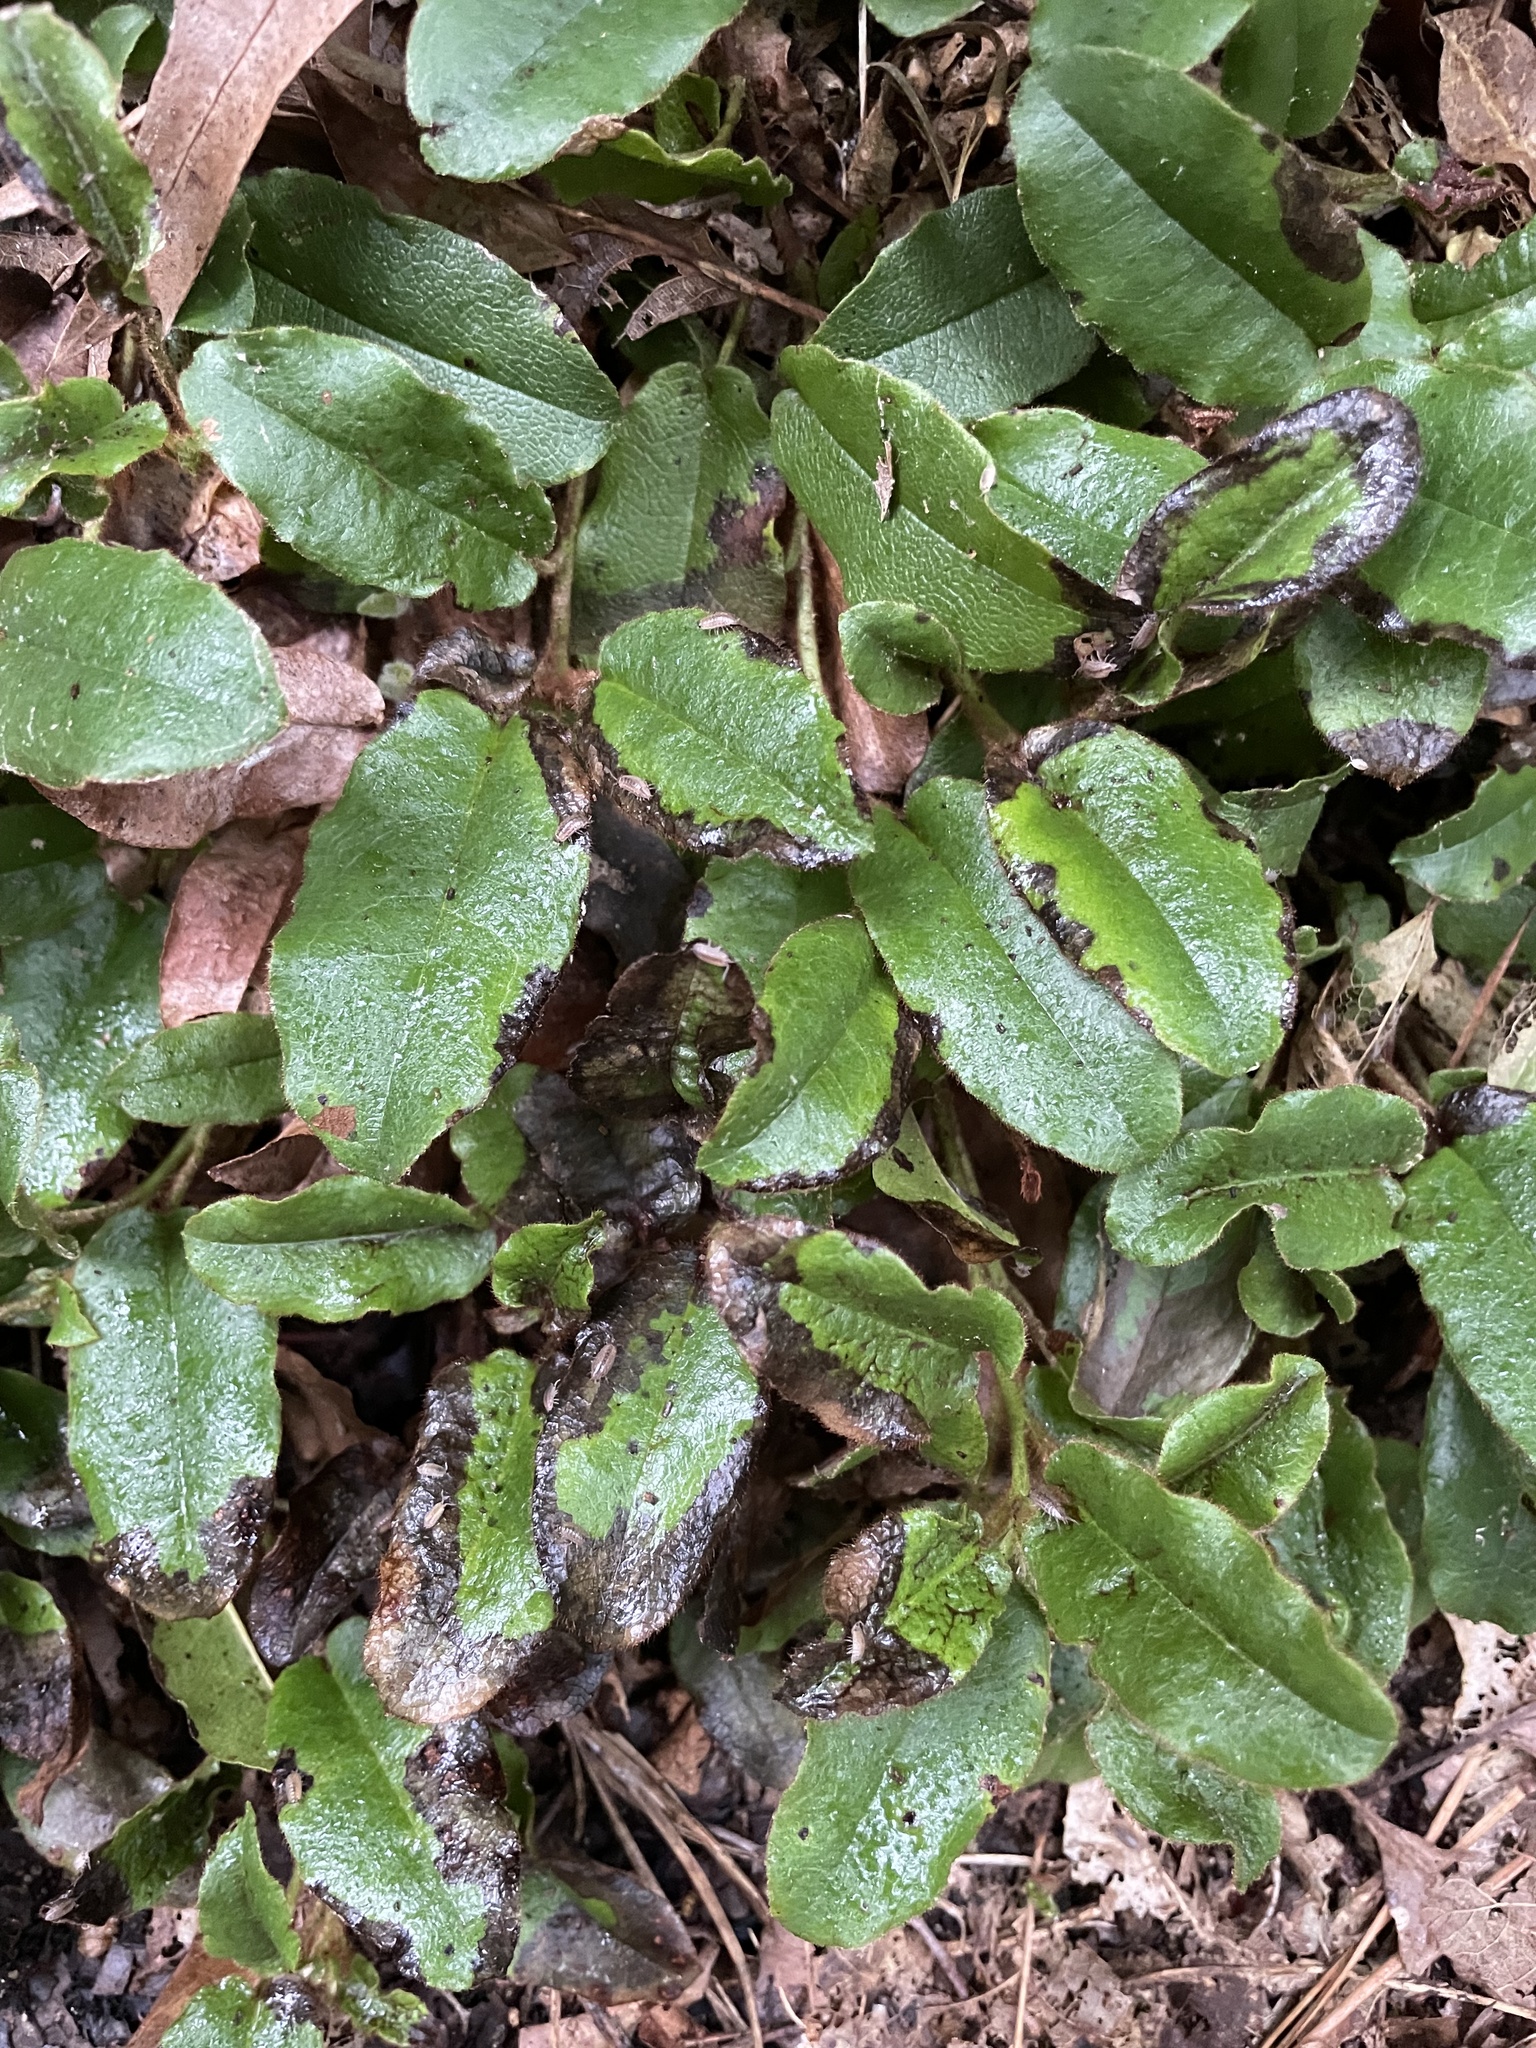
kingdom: Plantae
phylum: Tracheophyta
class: Magnoliopsida
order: Ericales
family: Ericaceae
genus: Epigaea
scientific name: Epigaea repens
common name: Gravelroot
